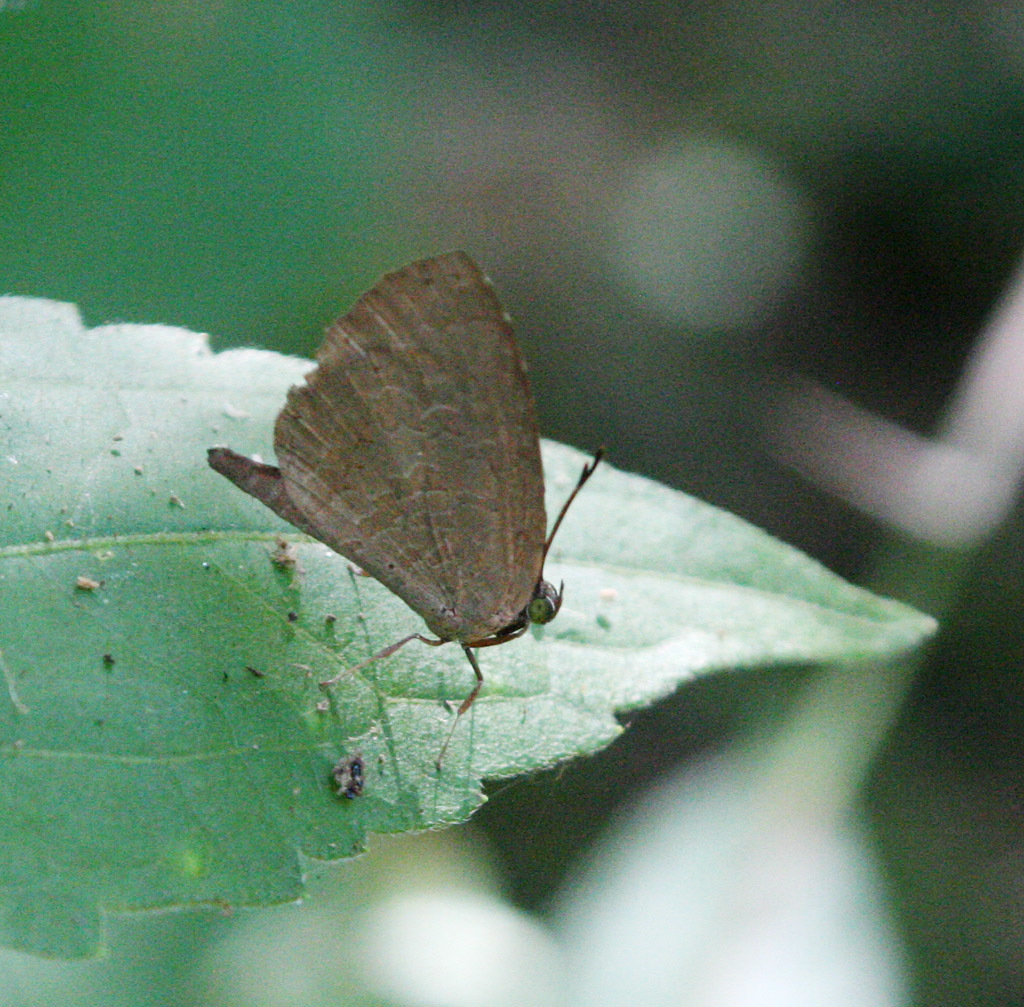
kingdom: Animalia
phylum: Arthropoda
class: Insecta
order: Lepidoptera
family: Lycaenidae
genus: Miletus
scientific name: Miletus chinensis
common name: Common brownie
